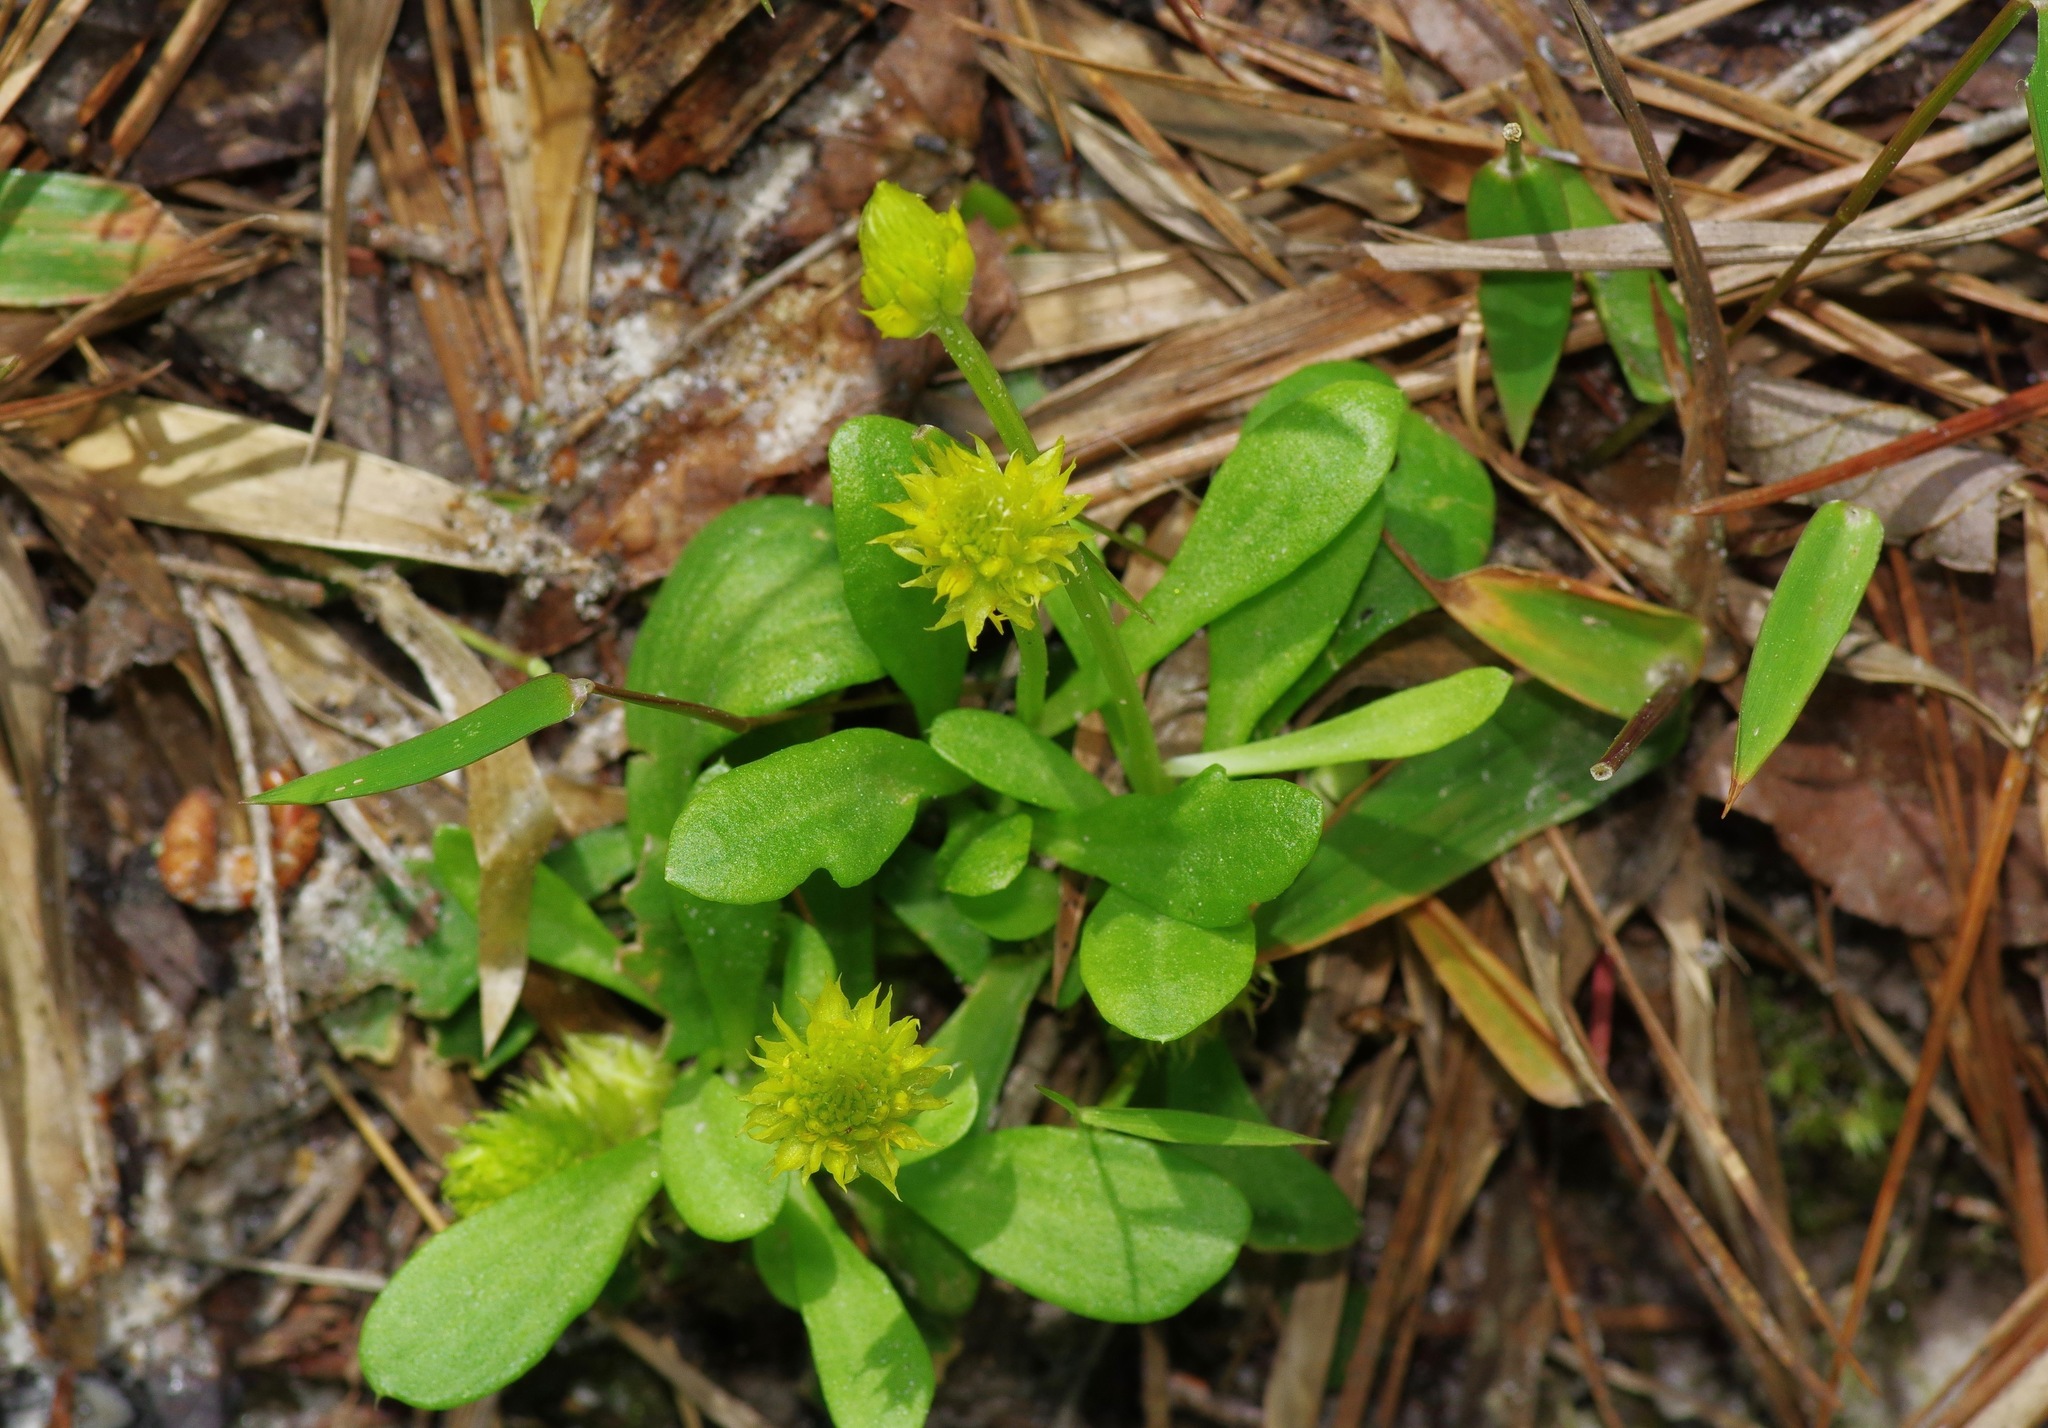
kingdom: Plantae
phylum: Tracheophyta
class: Magnoliopsida
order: Fabales
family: Polygalaceae
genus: Polygala
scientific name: Polygala nana
